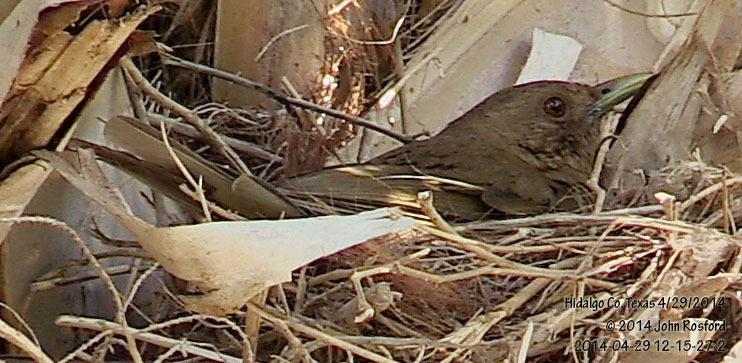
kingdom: Animalia
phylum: Chordata
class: Aves
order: Passeriformes
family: Turdidae
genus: Turdus
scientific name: Turdus grayi
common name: Clay-colored thrush
